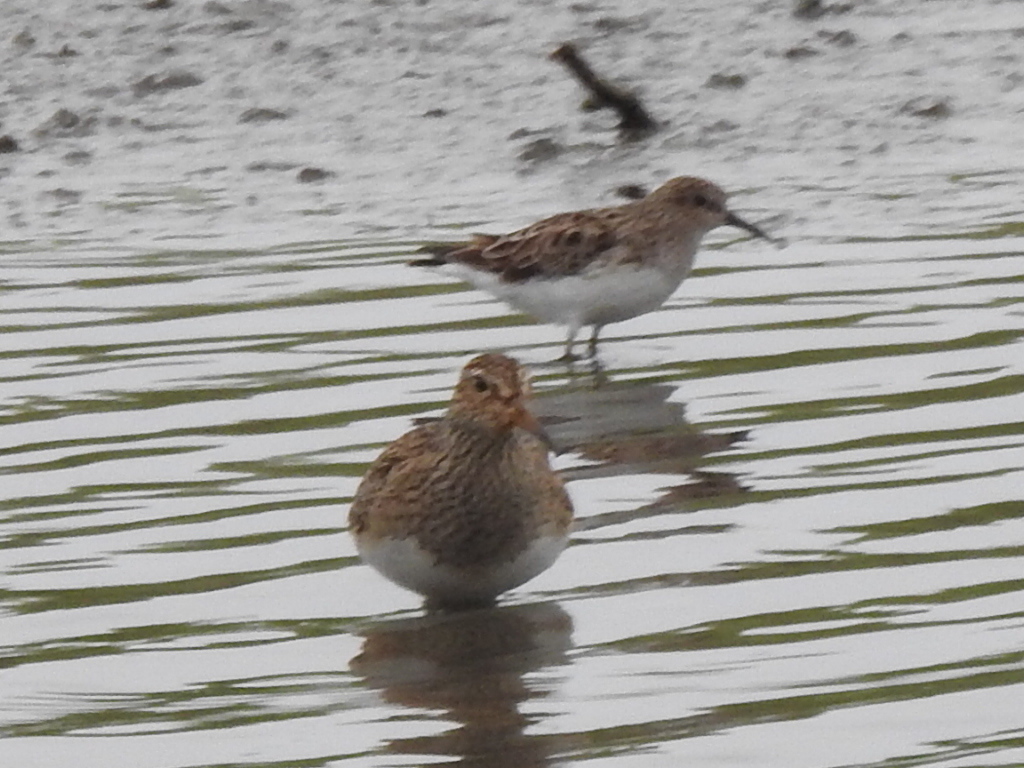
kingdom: Animalia
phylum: Chordata
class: Aves
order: Charadriiformes
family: Scolopacidae
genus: Calidris
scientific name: Calidris minutilla
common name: Least sandpiper
